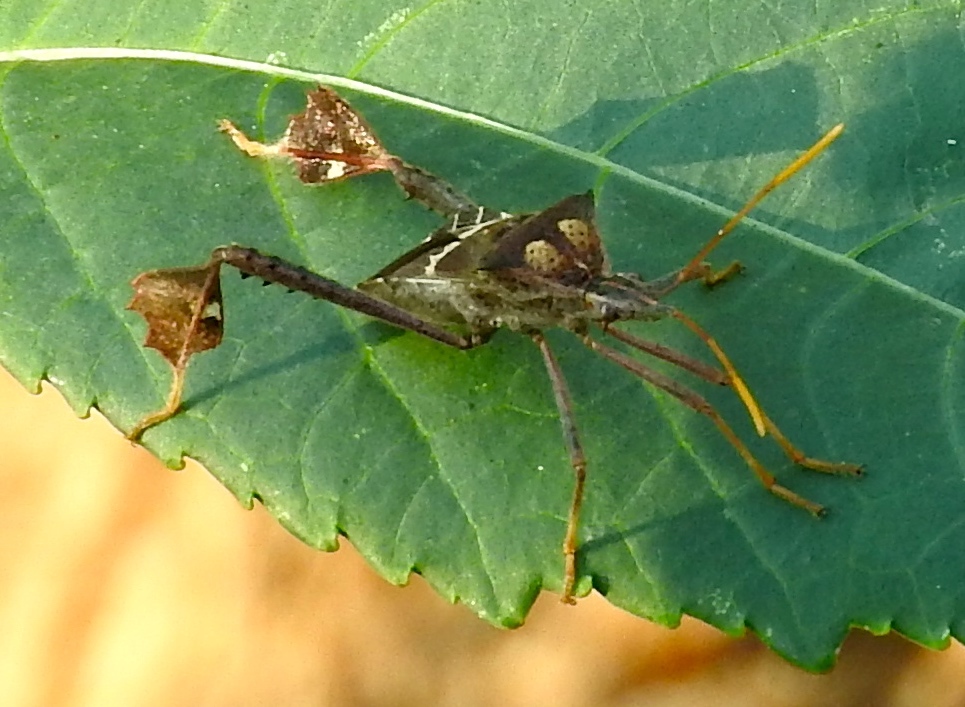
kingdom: Animalia
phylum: Arthropoda
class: Insecta
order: Hemiptera
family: Coreidae
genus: Leptoglossus
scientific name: Leptoglossus zonatus
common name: Large-legged bug
